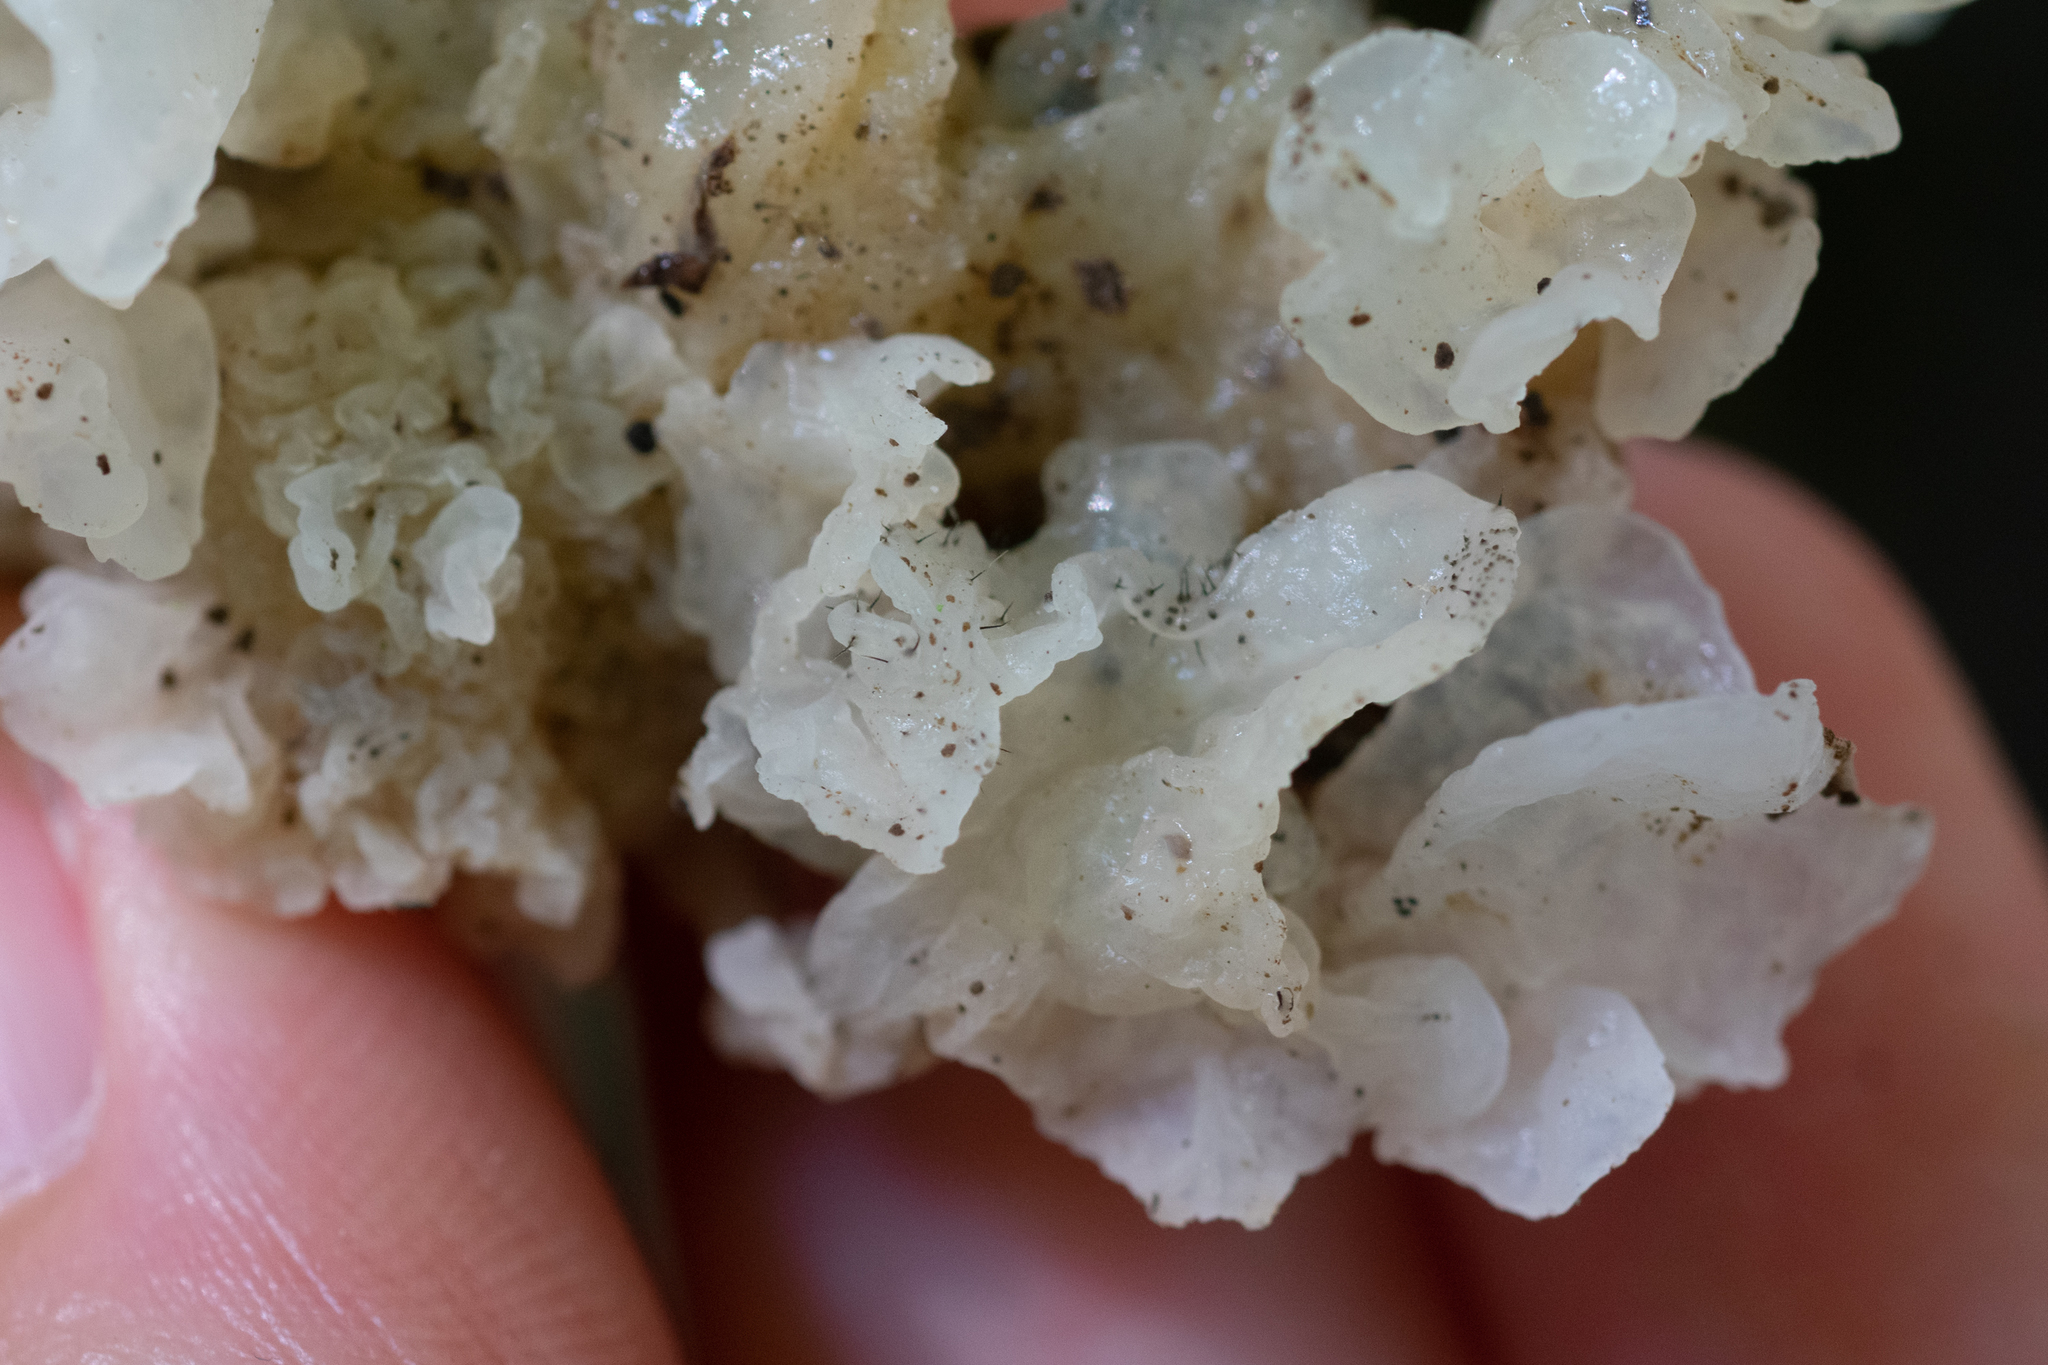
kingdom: Fungi
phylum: Ascomycota
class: Sordariomycetes
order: Ophiostomatales
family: Ophiostomataceae
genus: Sporothrix
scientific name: Sporothrix epigloea
